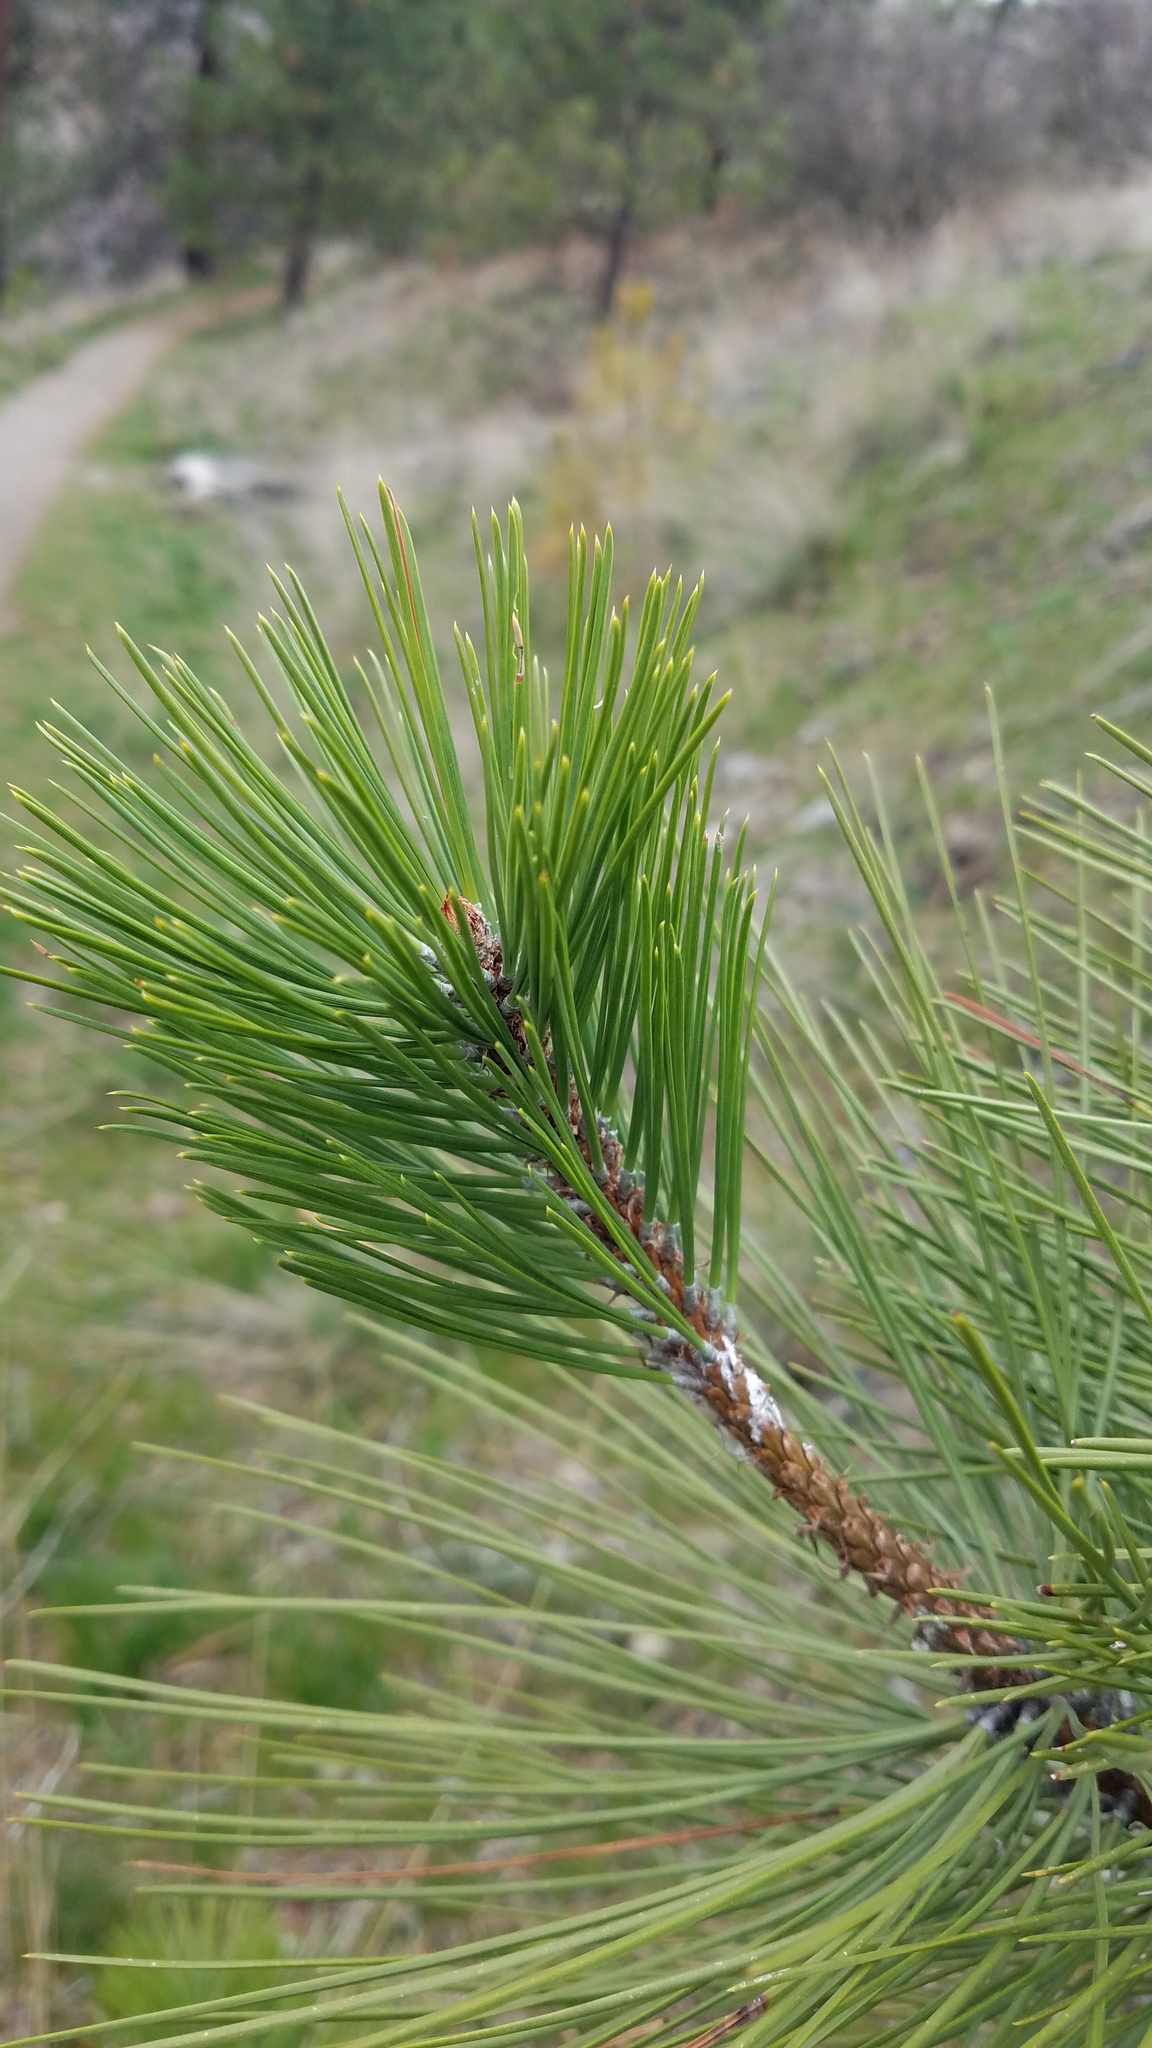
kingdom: Plantae
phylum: Tracheophyta
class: Pinopsida
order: Pinales
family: Pinaceae
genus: Pinus
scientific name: Pinus ponderosa
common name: Western yellow-pine
